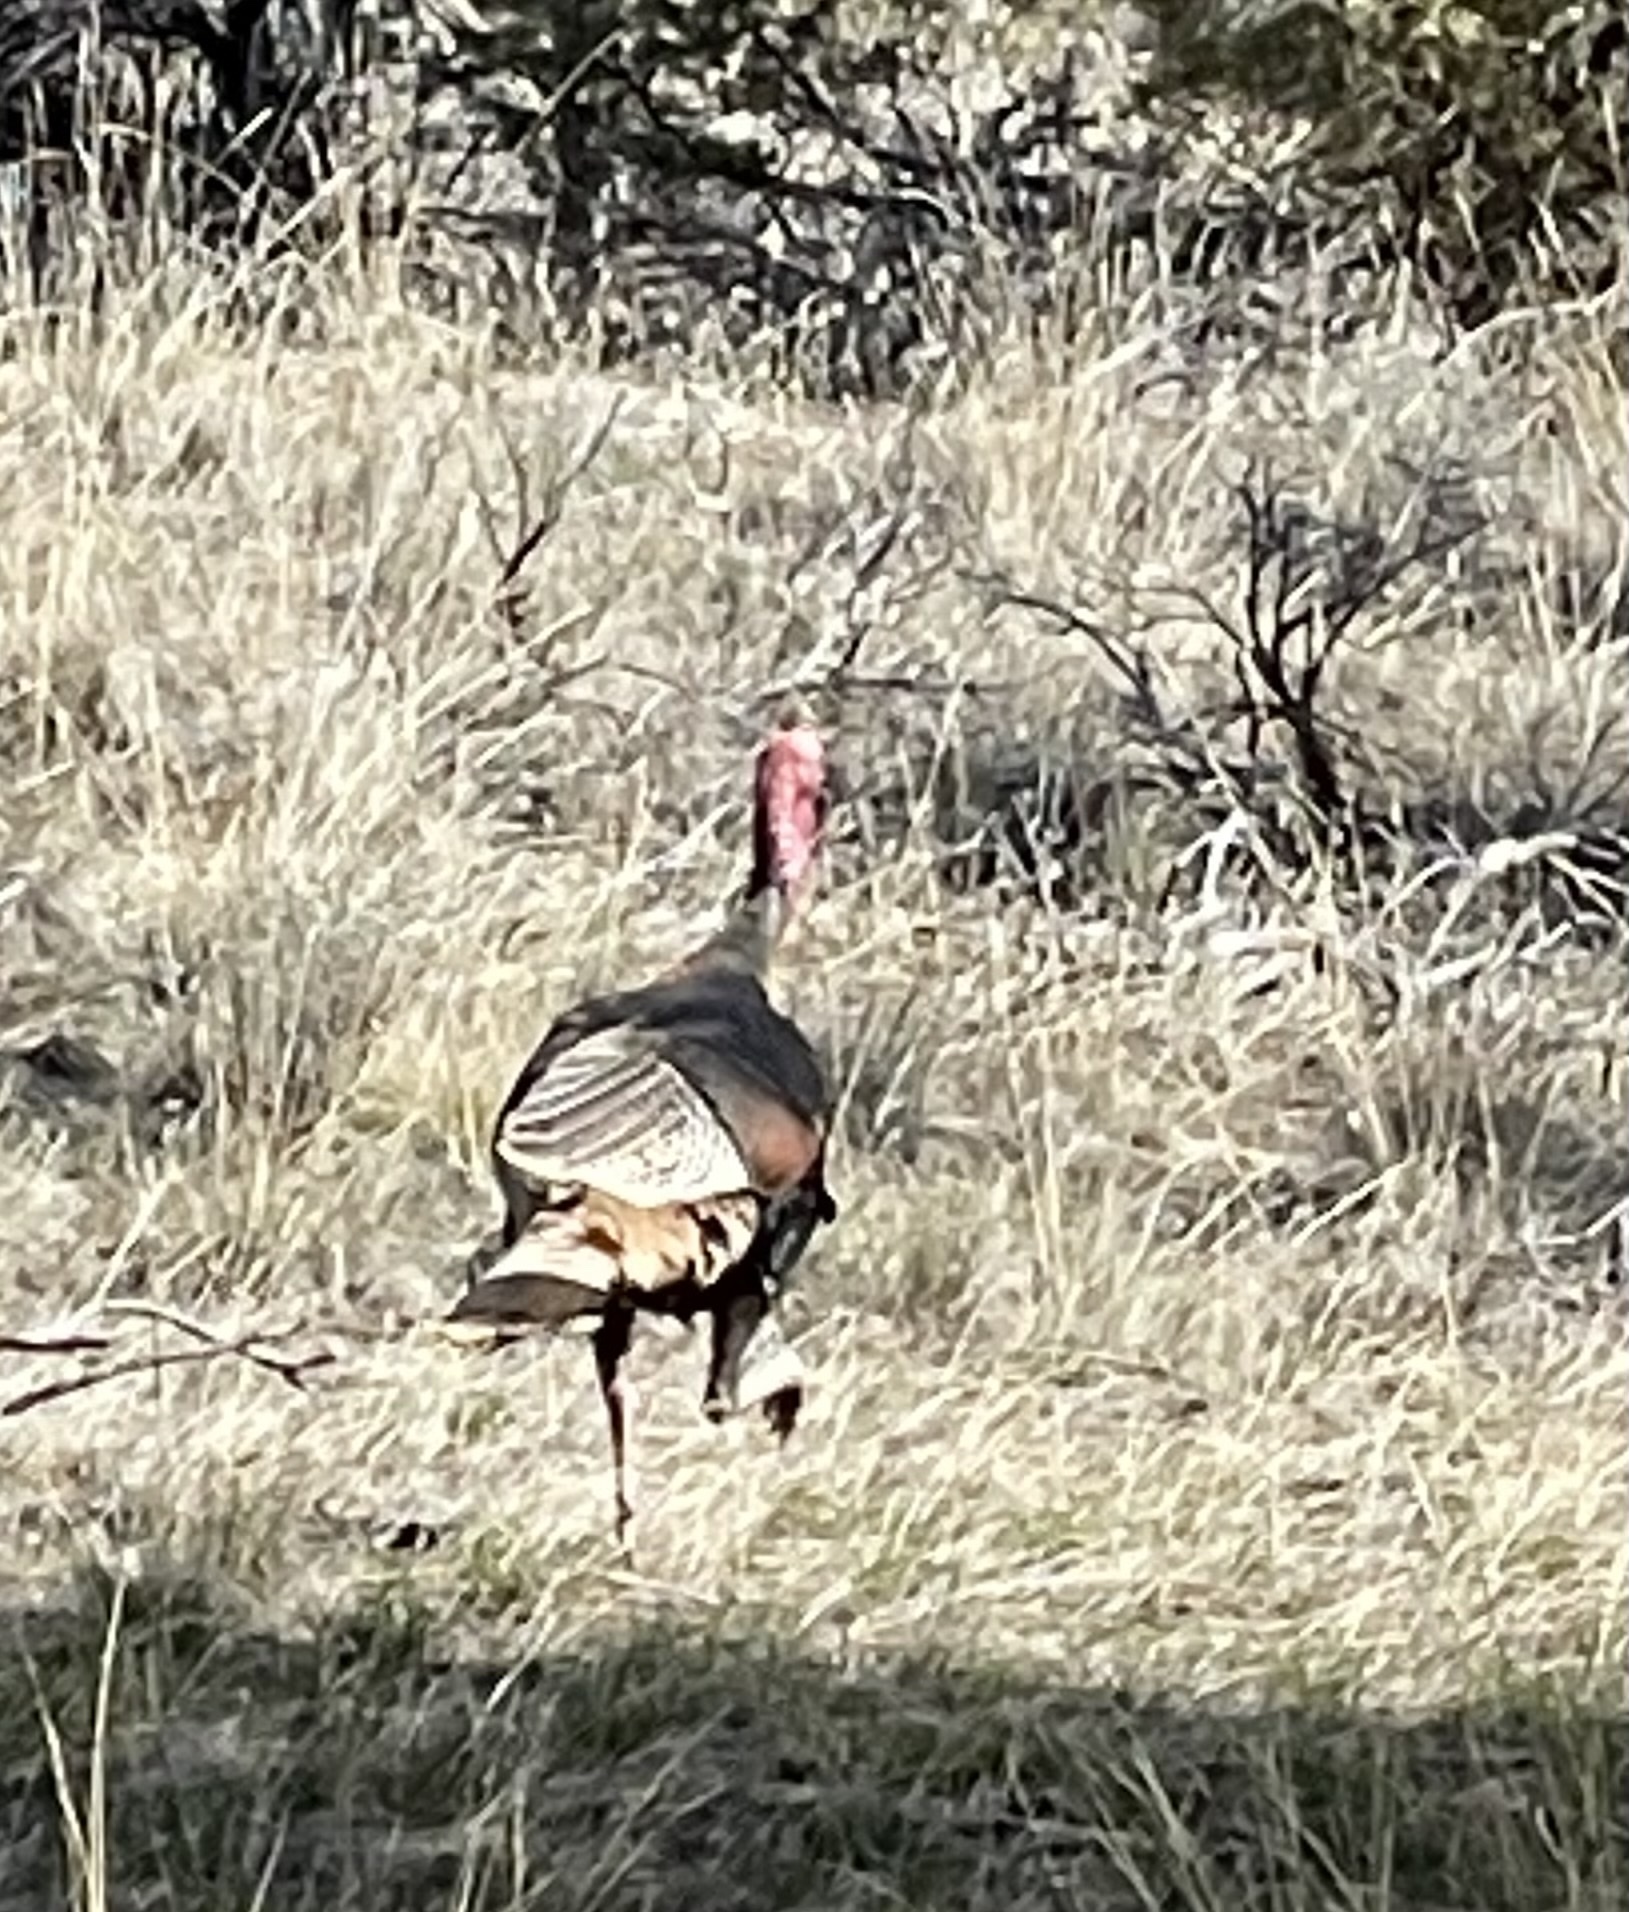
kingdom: Animalia
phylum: Chordata
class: Aves
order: Galliformes
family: Phasianidae
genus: Meleagris
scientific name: Meleagris gallopavo
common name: Wild turkey
